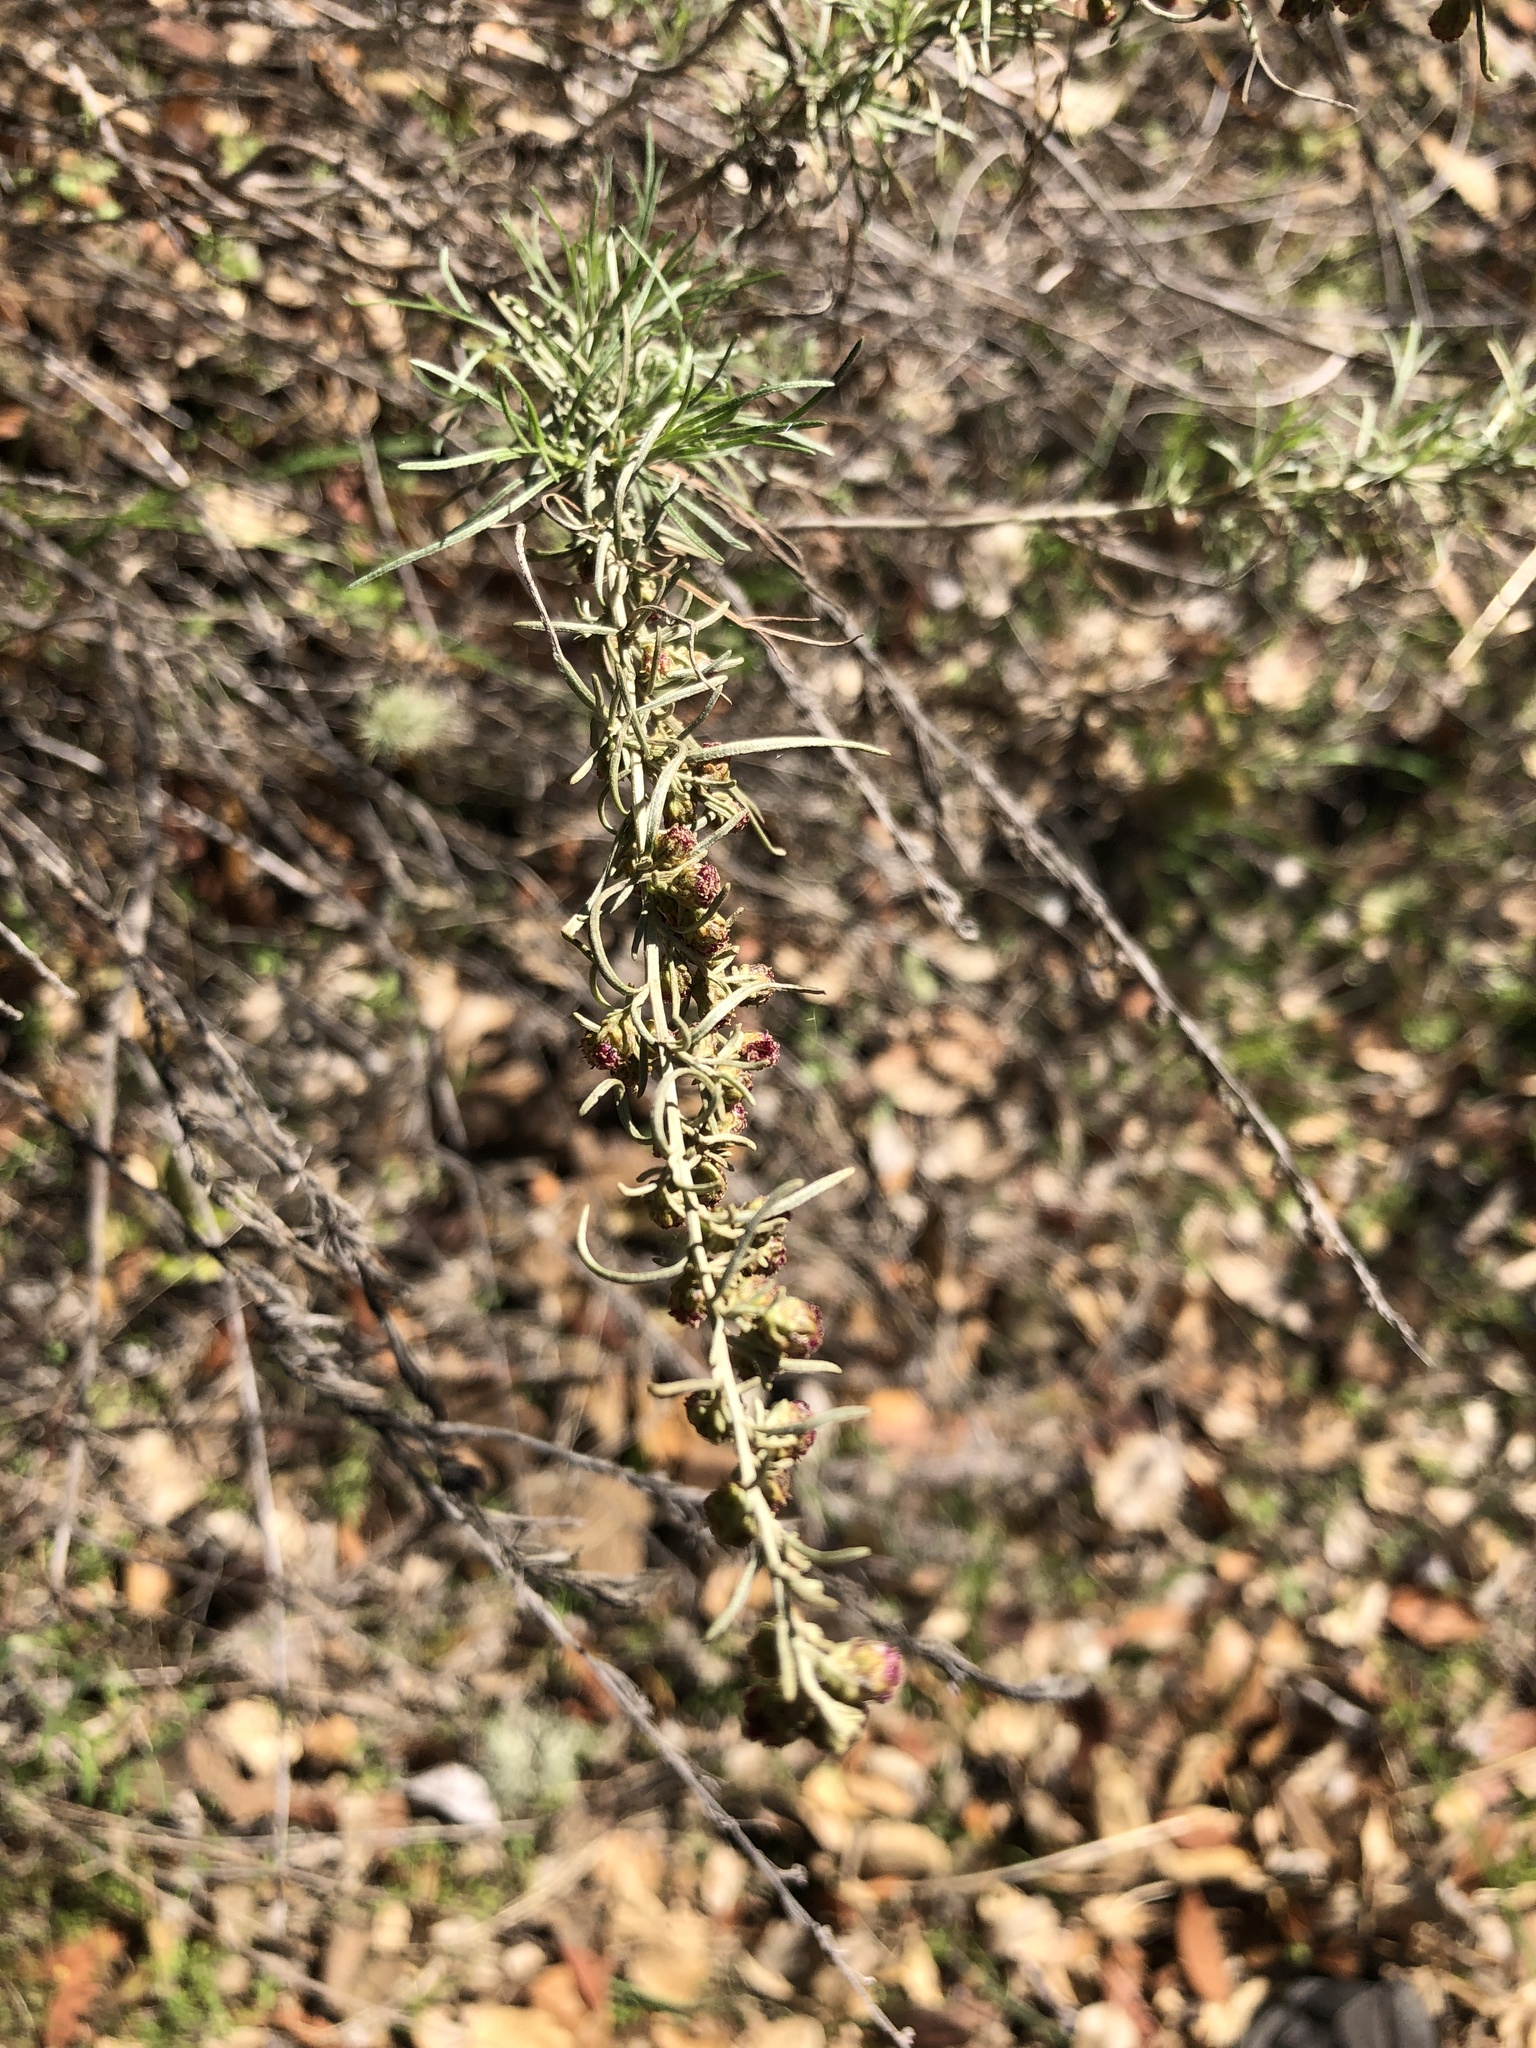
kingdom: Plantae
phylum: Tracheophyta
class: Magnoliopsida
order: Asterales
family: Asteraceae
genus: Artemisia
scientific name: Artemisia californica
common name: California sagebrush
